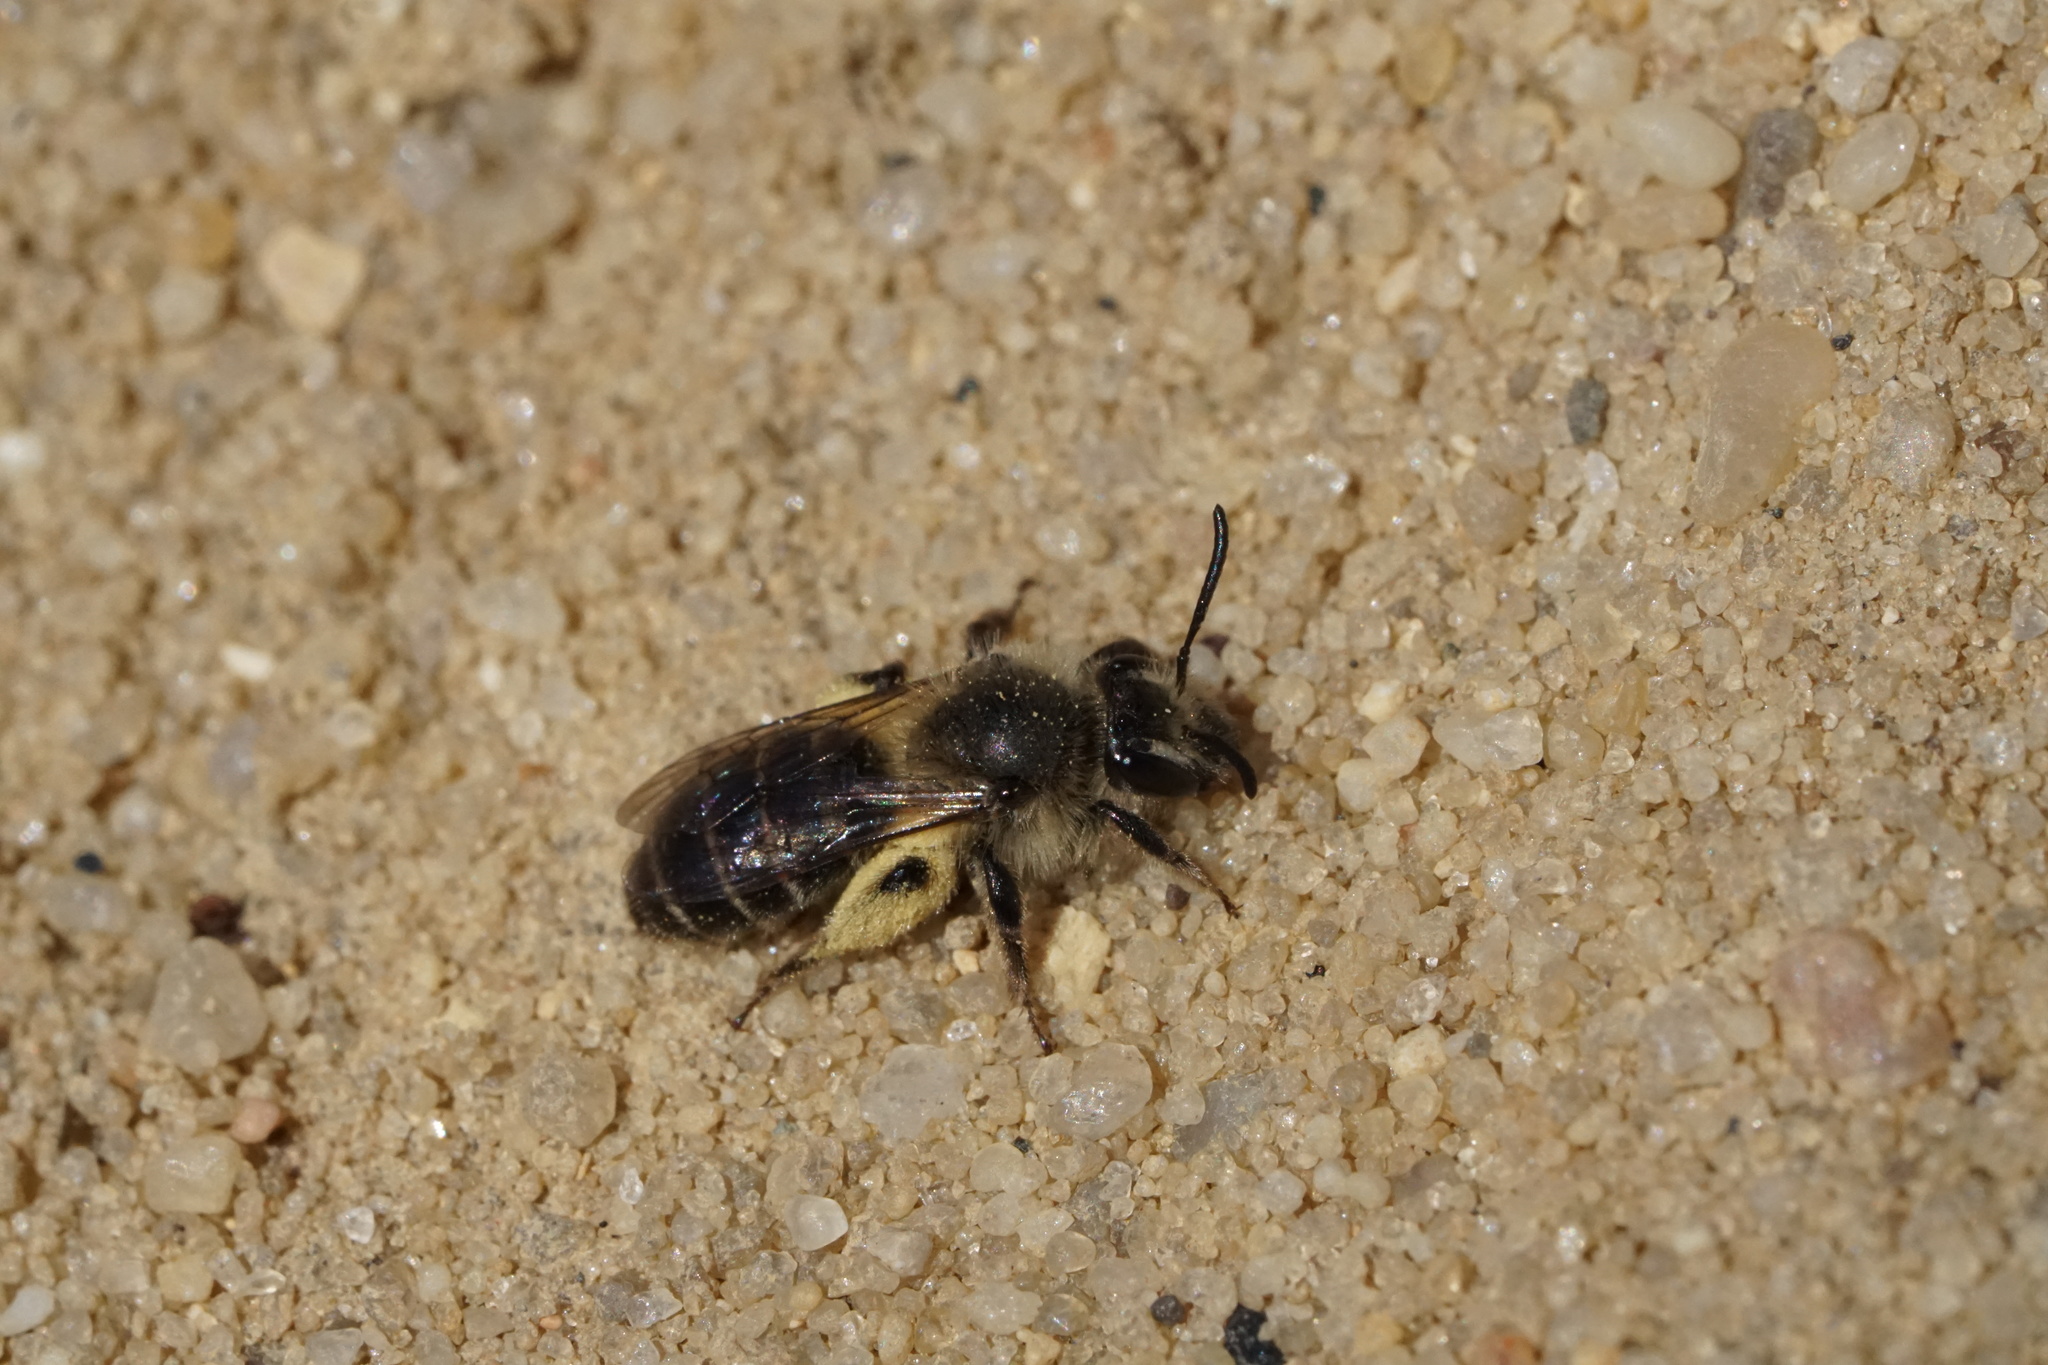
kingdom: Animalia
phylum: Arthropoda
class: Insecta
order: Hymenoptera
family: Andrenidae
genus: Andrena
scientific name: Andrena bradleyi
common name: Bradley's mining bee
